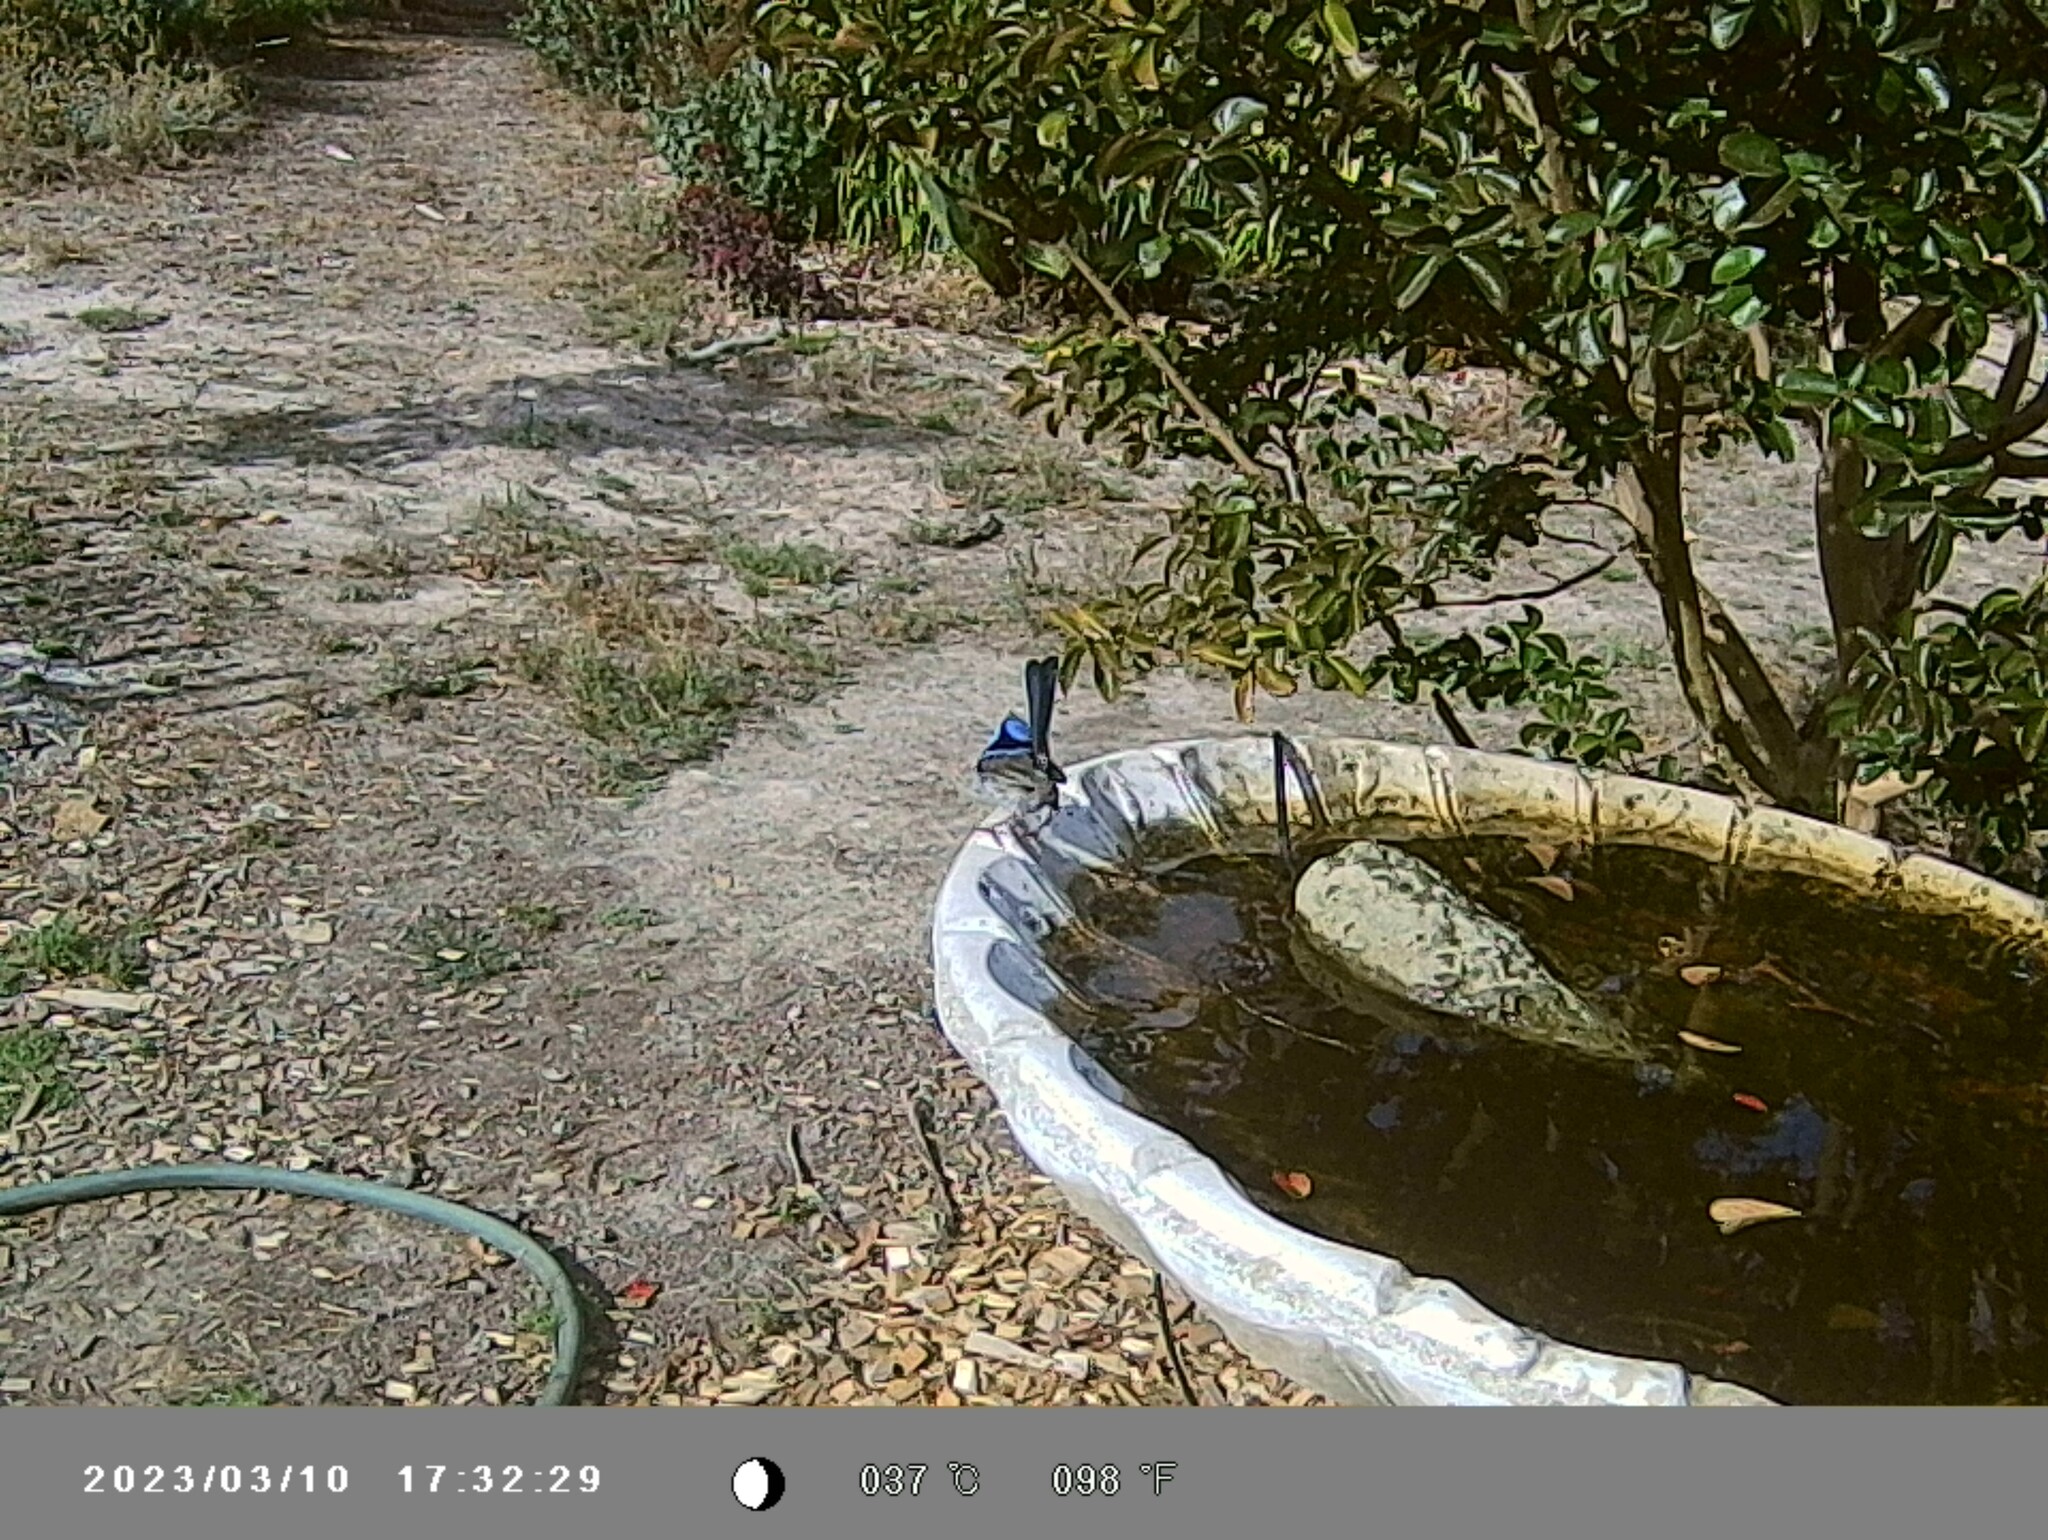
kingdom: Animalia
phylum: Chordata
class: Aves
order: Passeriformes
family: Maluridae
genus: Malurus
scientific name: Malurus cyaneus
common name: Superb fairywren
